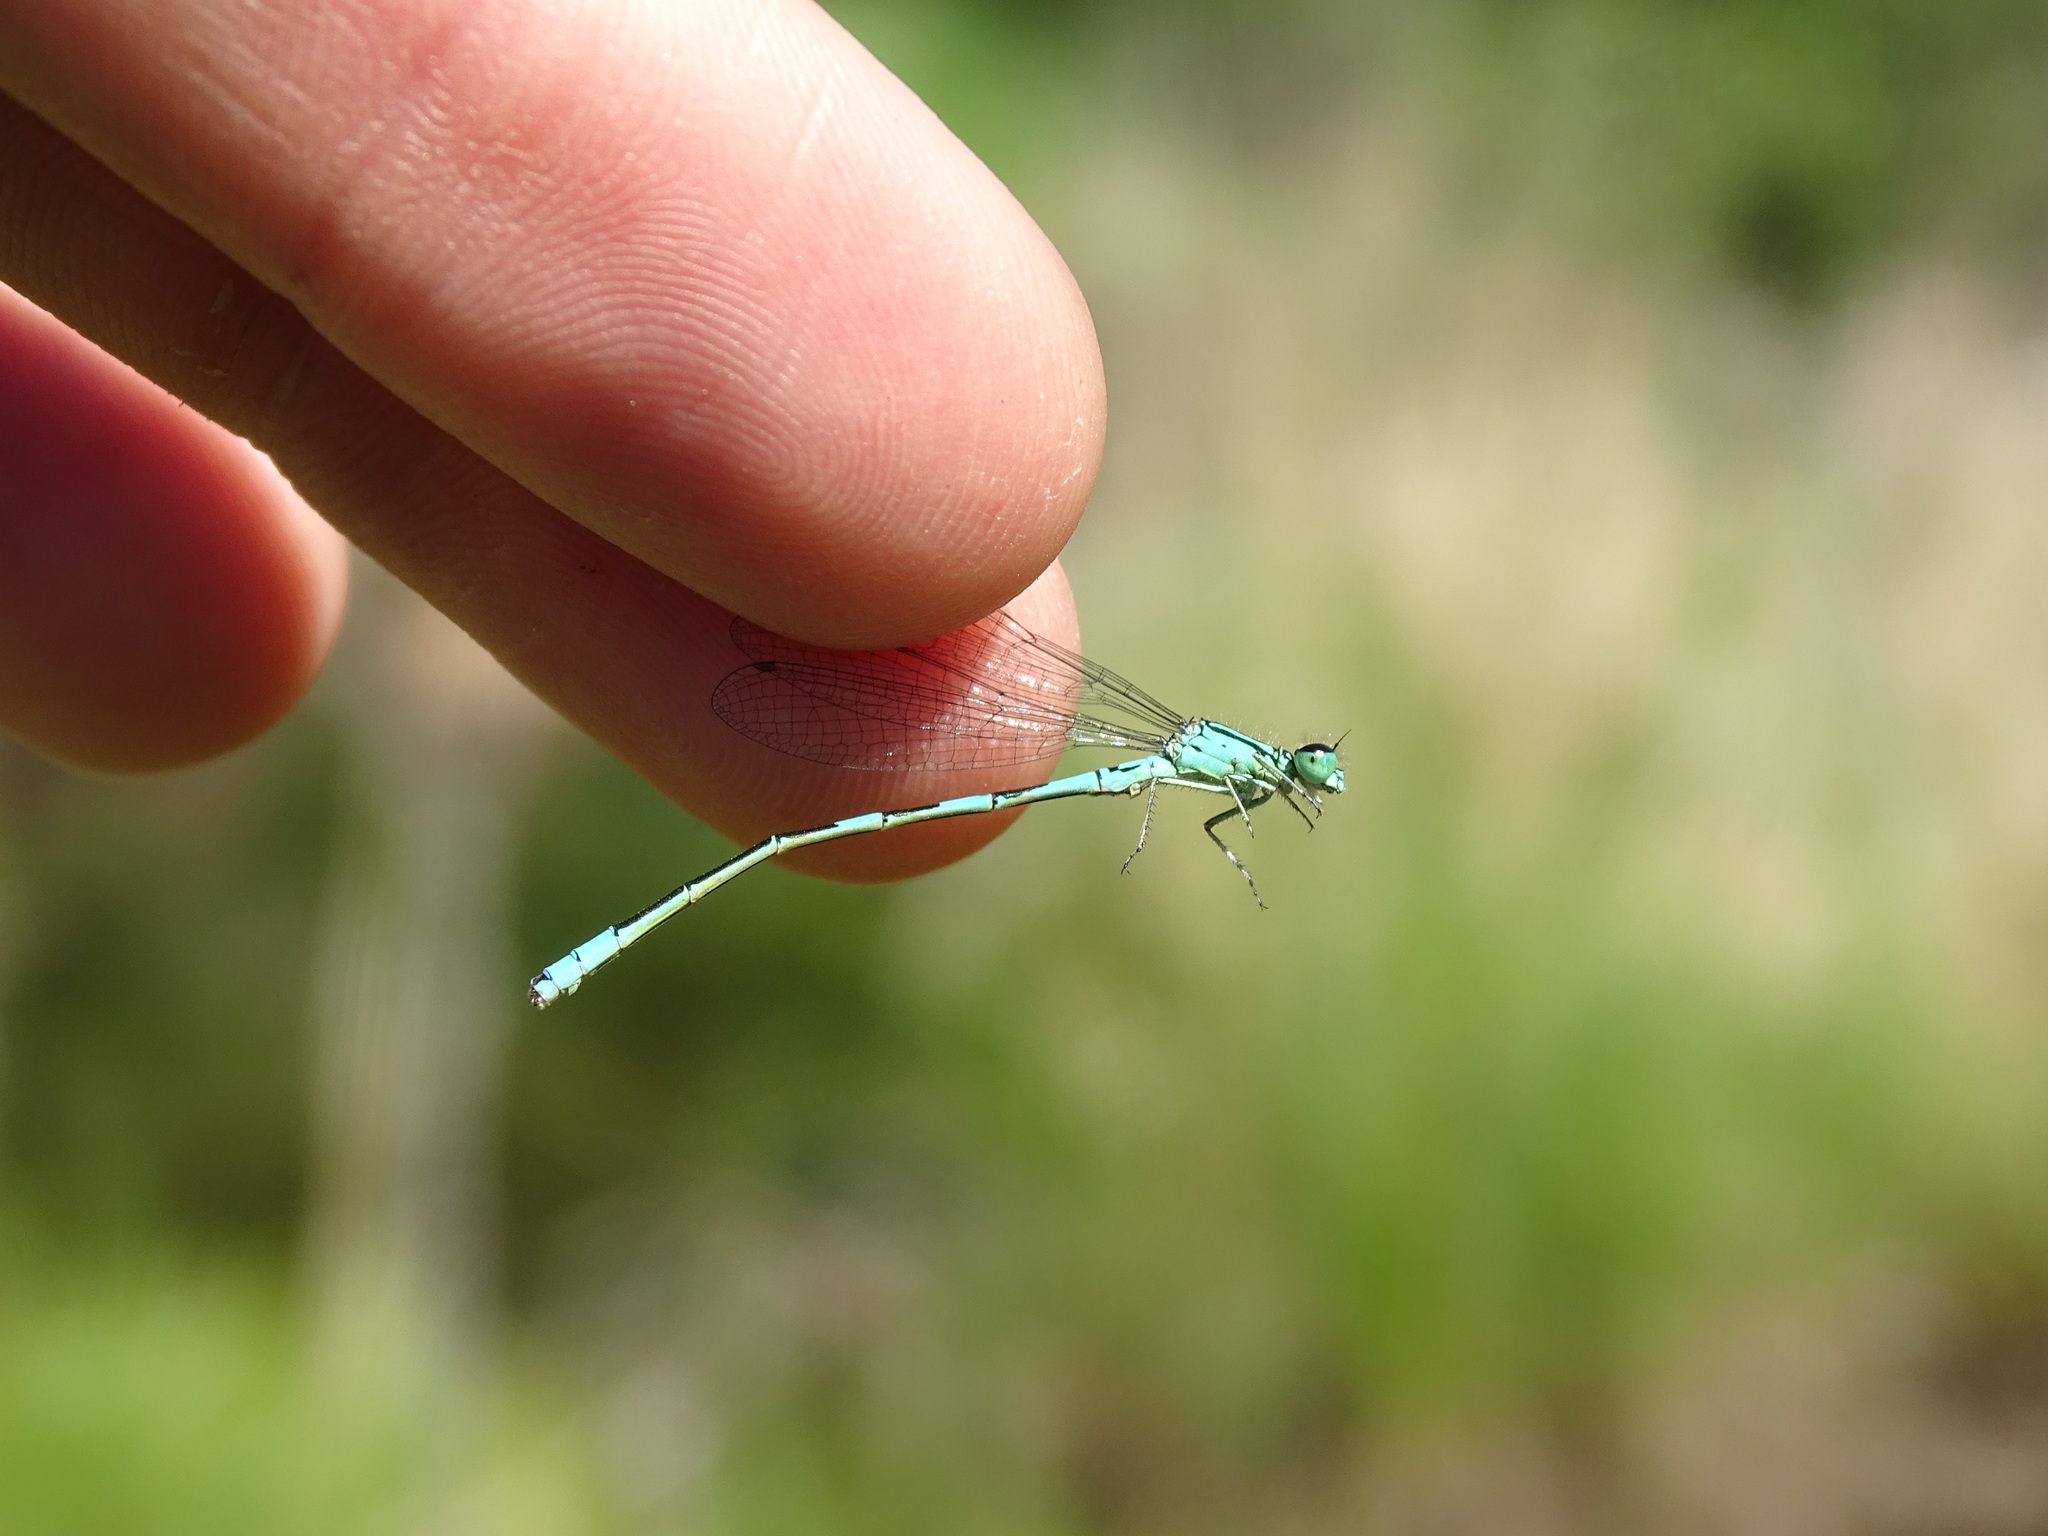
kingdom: Animalia
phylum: Arthropoda
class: Insecta
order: Odonata
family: Coenagrionidae
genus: Coenagrion
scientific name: Coenagrion resolutum
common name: Taiga bluet
